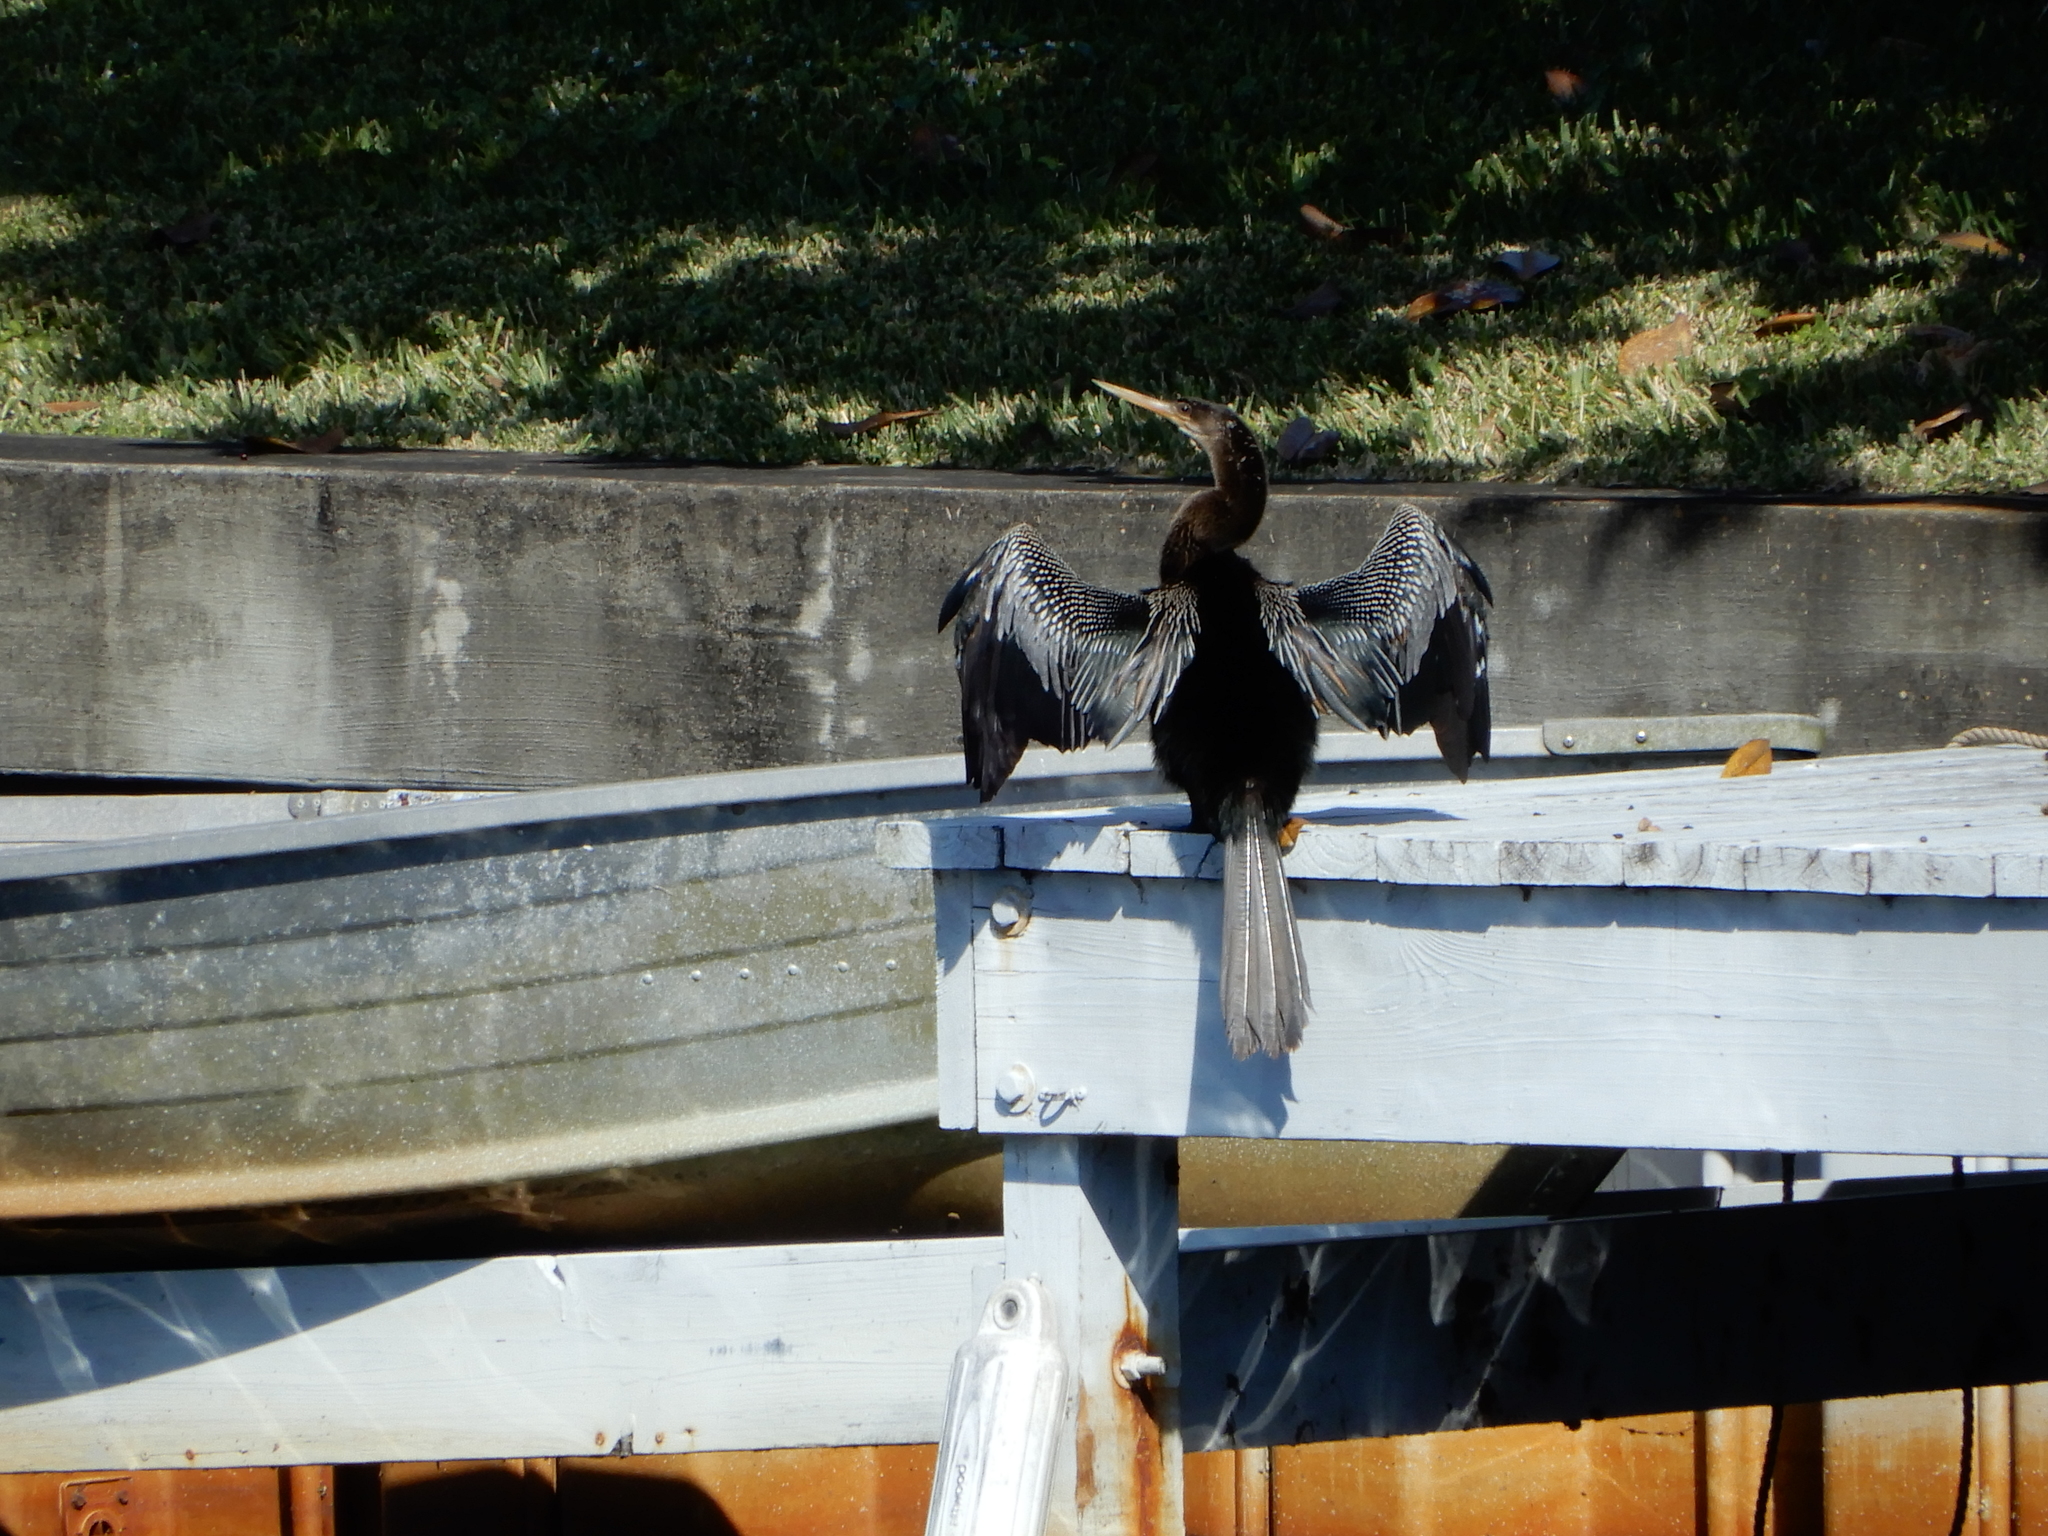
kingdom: Animalia
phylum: Chordata
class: Aves
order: Suliformes
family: Anhingidae
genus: Anhinga
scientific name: Anhinga anhinga
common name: Anhinga
